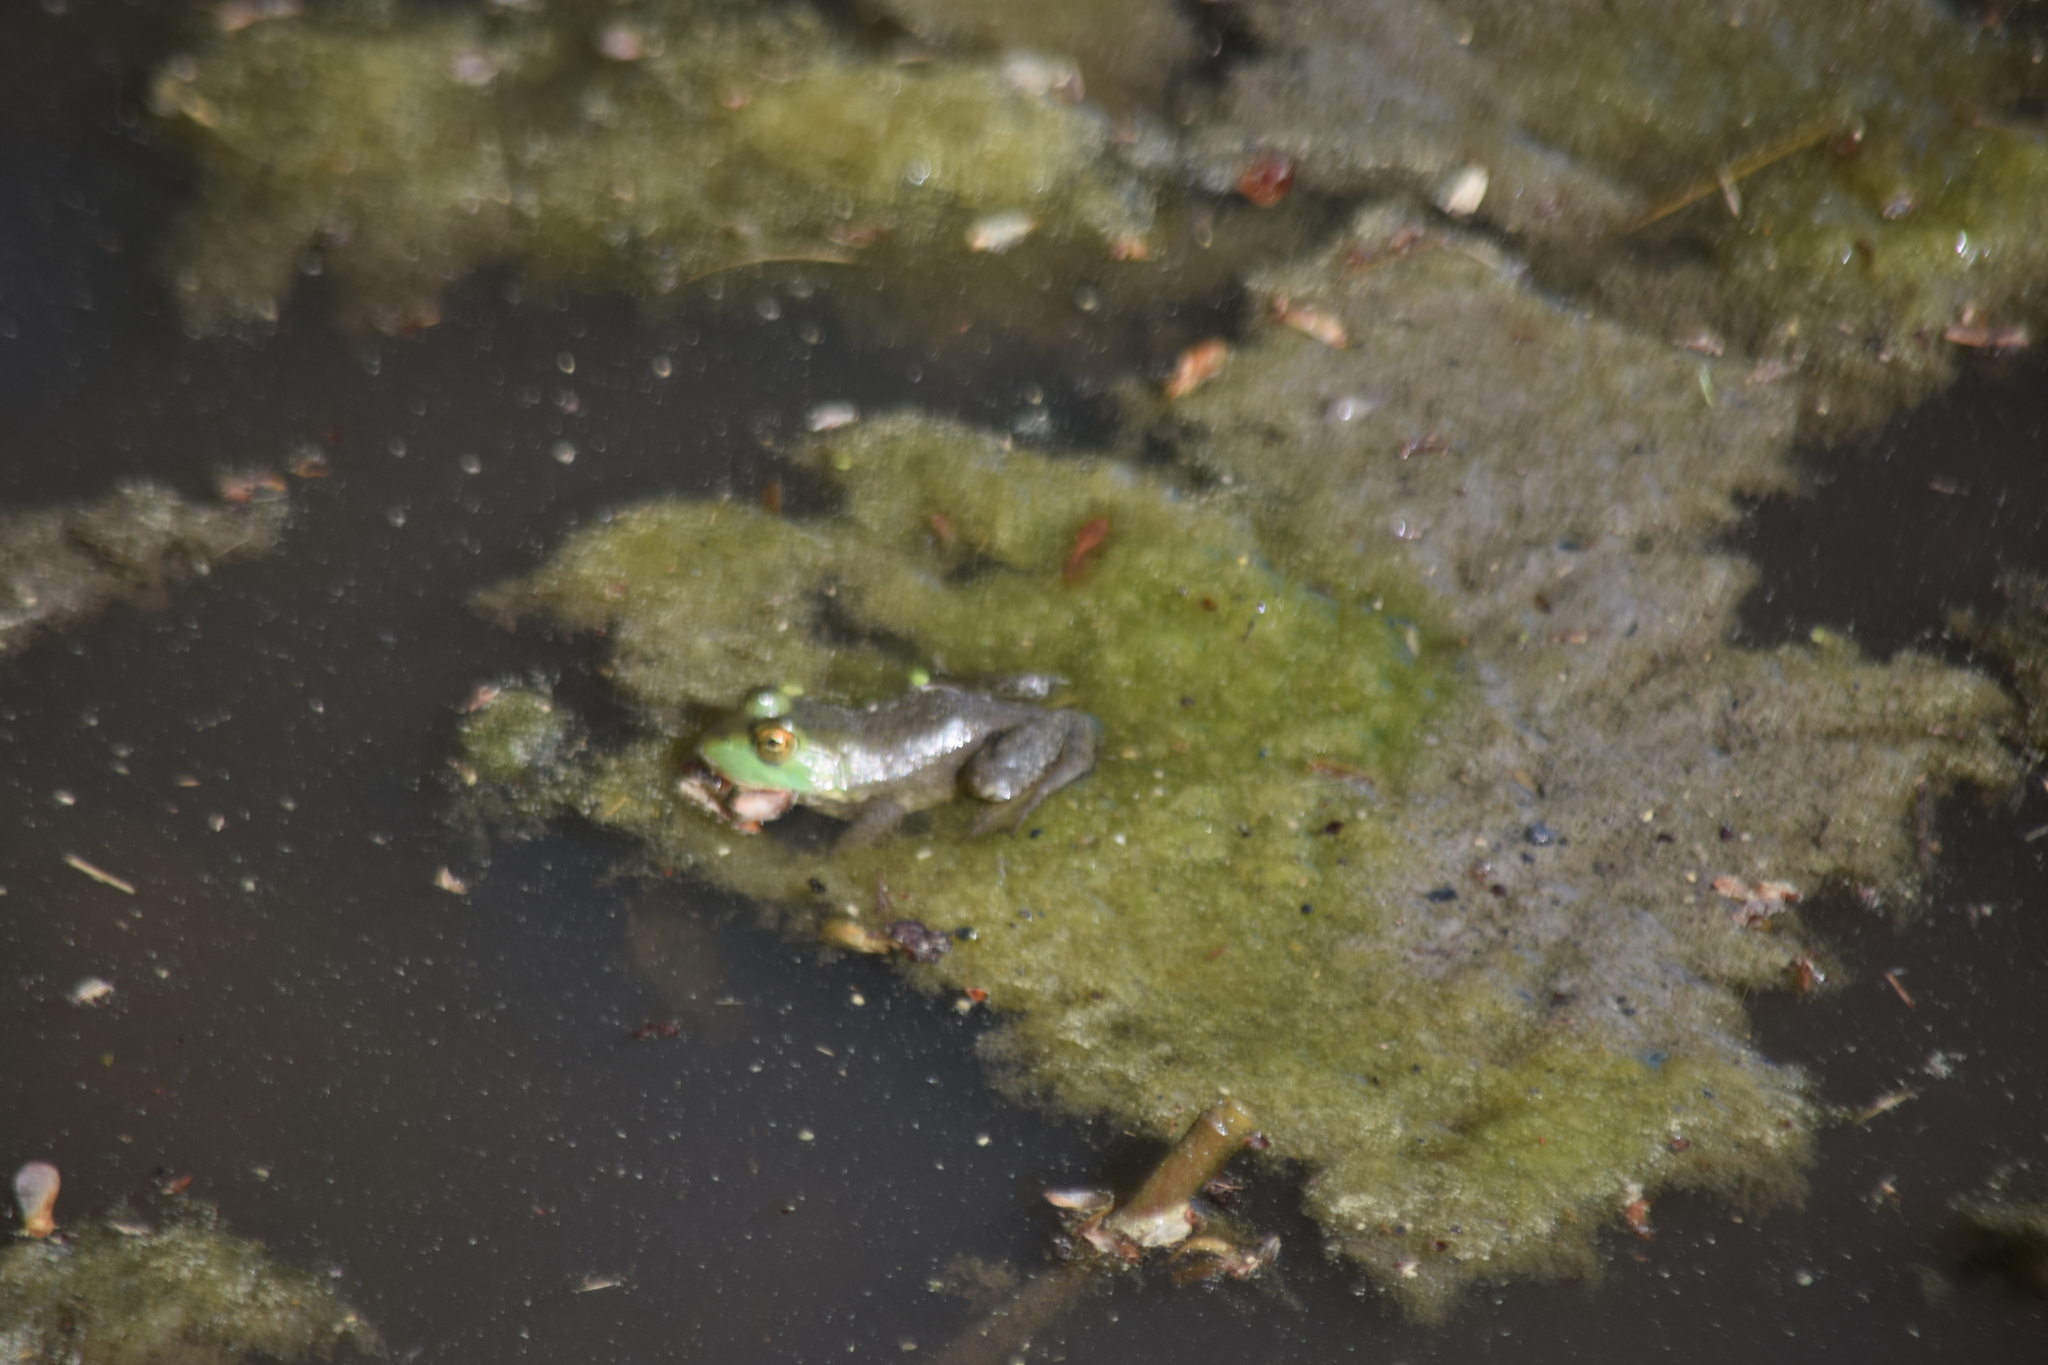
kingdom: Animalia
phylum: Chordata
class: Amphibia
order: Anura
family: Ranidae
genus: Lithobates
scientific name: Lithobates catesbeianus
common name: American bullfrog
